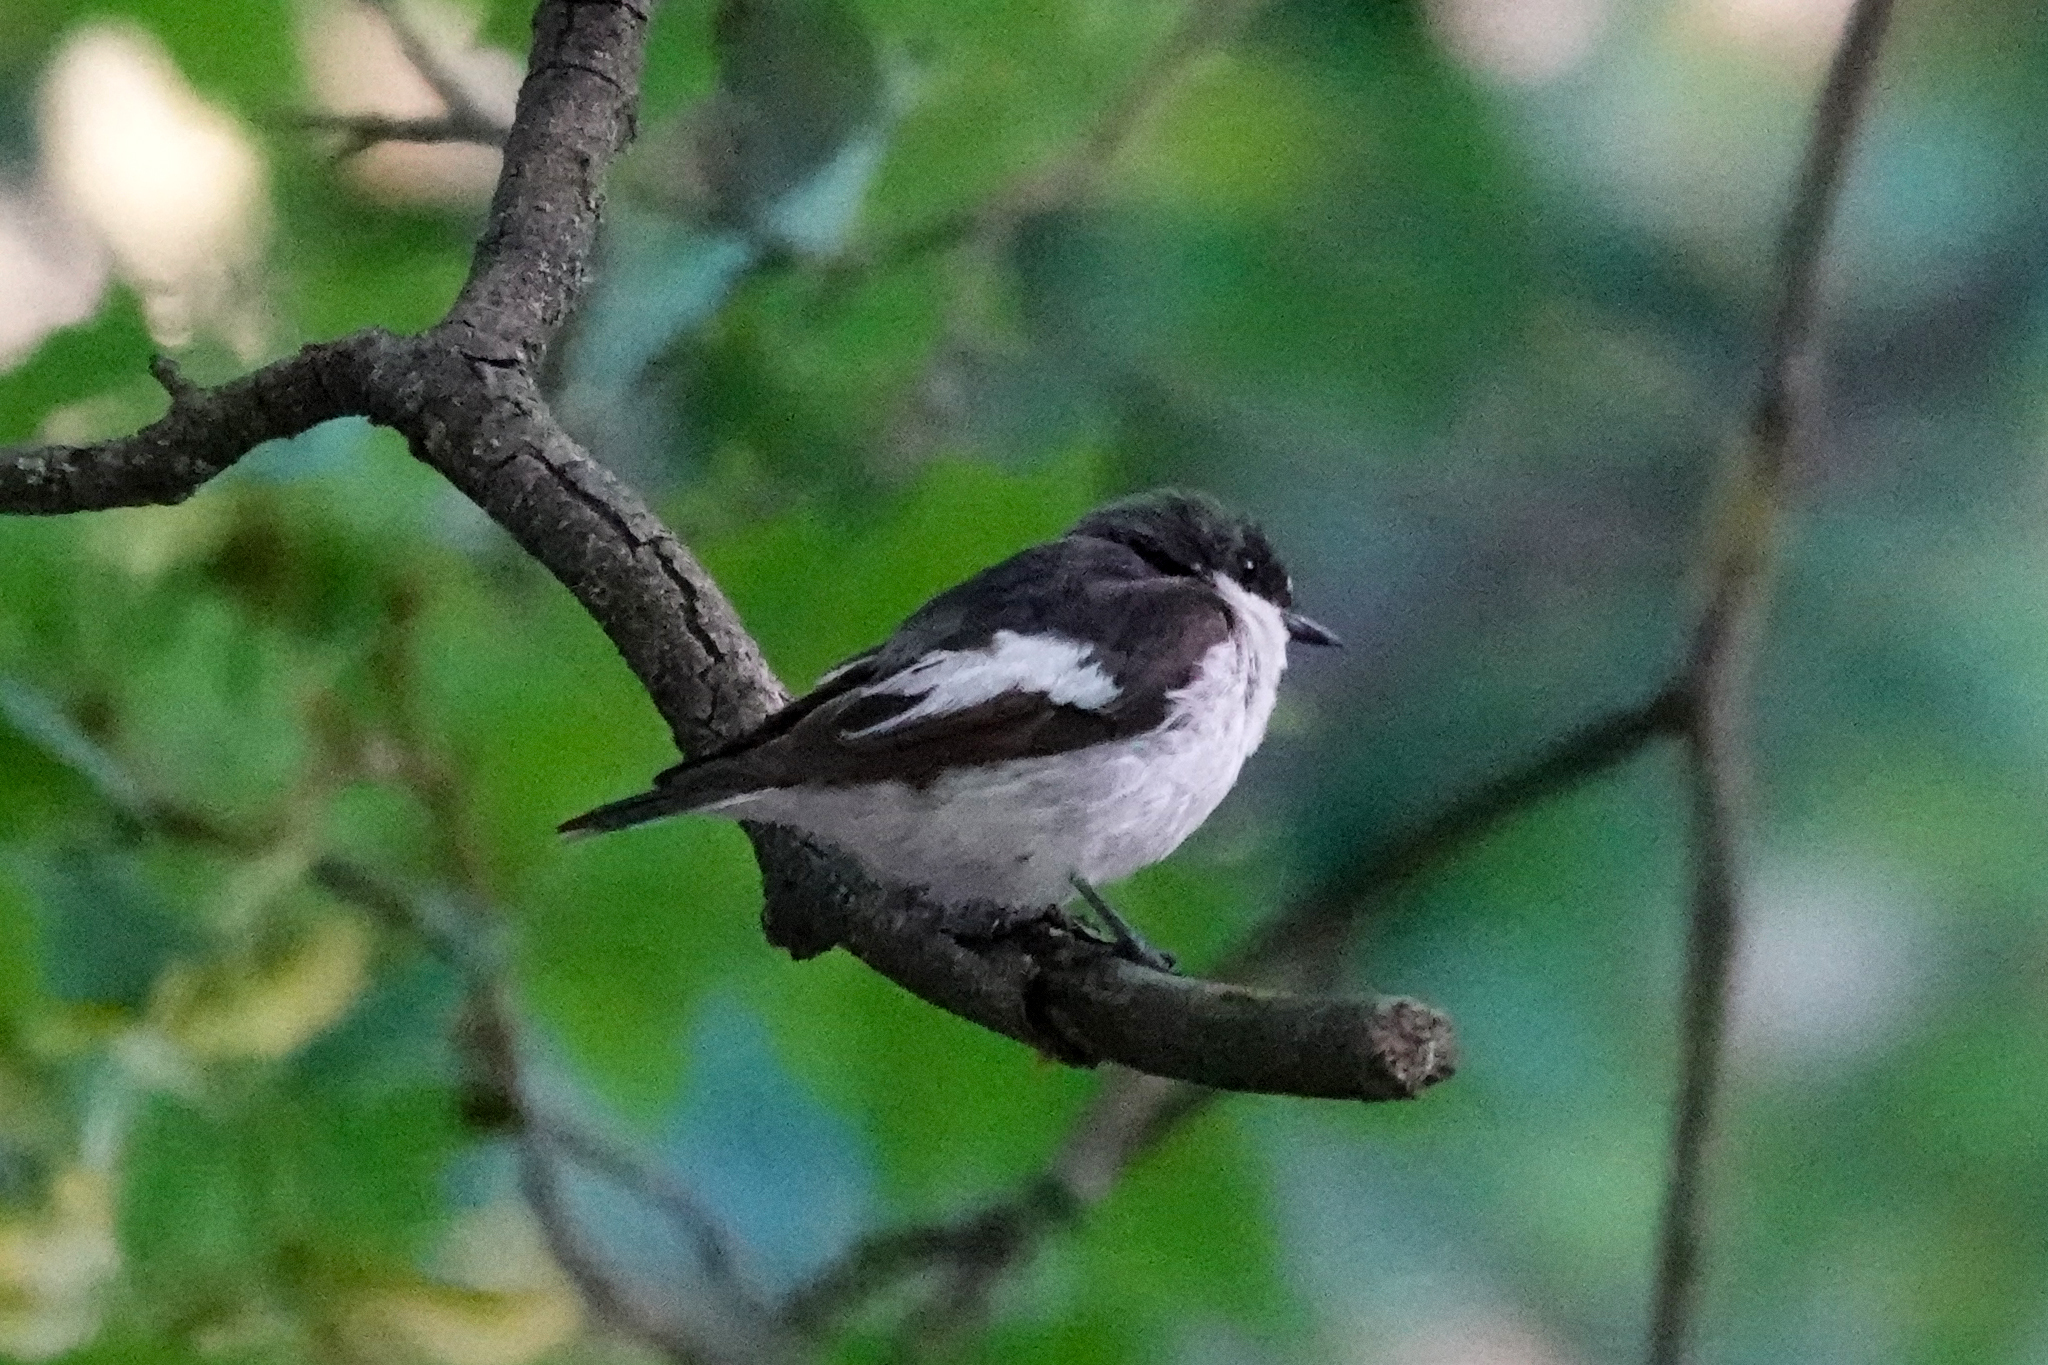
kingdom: Animalia
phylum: Chordata
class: Aves
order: Passeriformes
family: Muscicapidae
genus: Ficedula
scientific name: Ficedula hypoleuca
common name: European pied flycatcher
